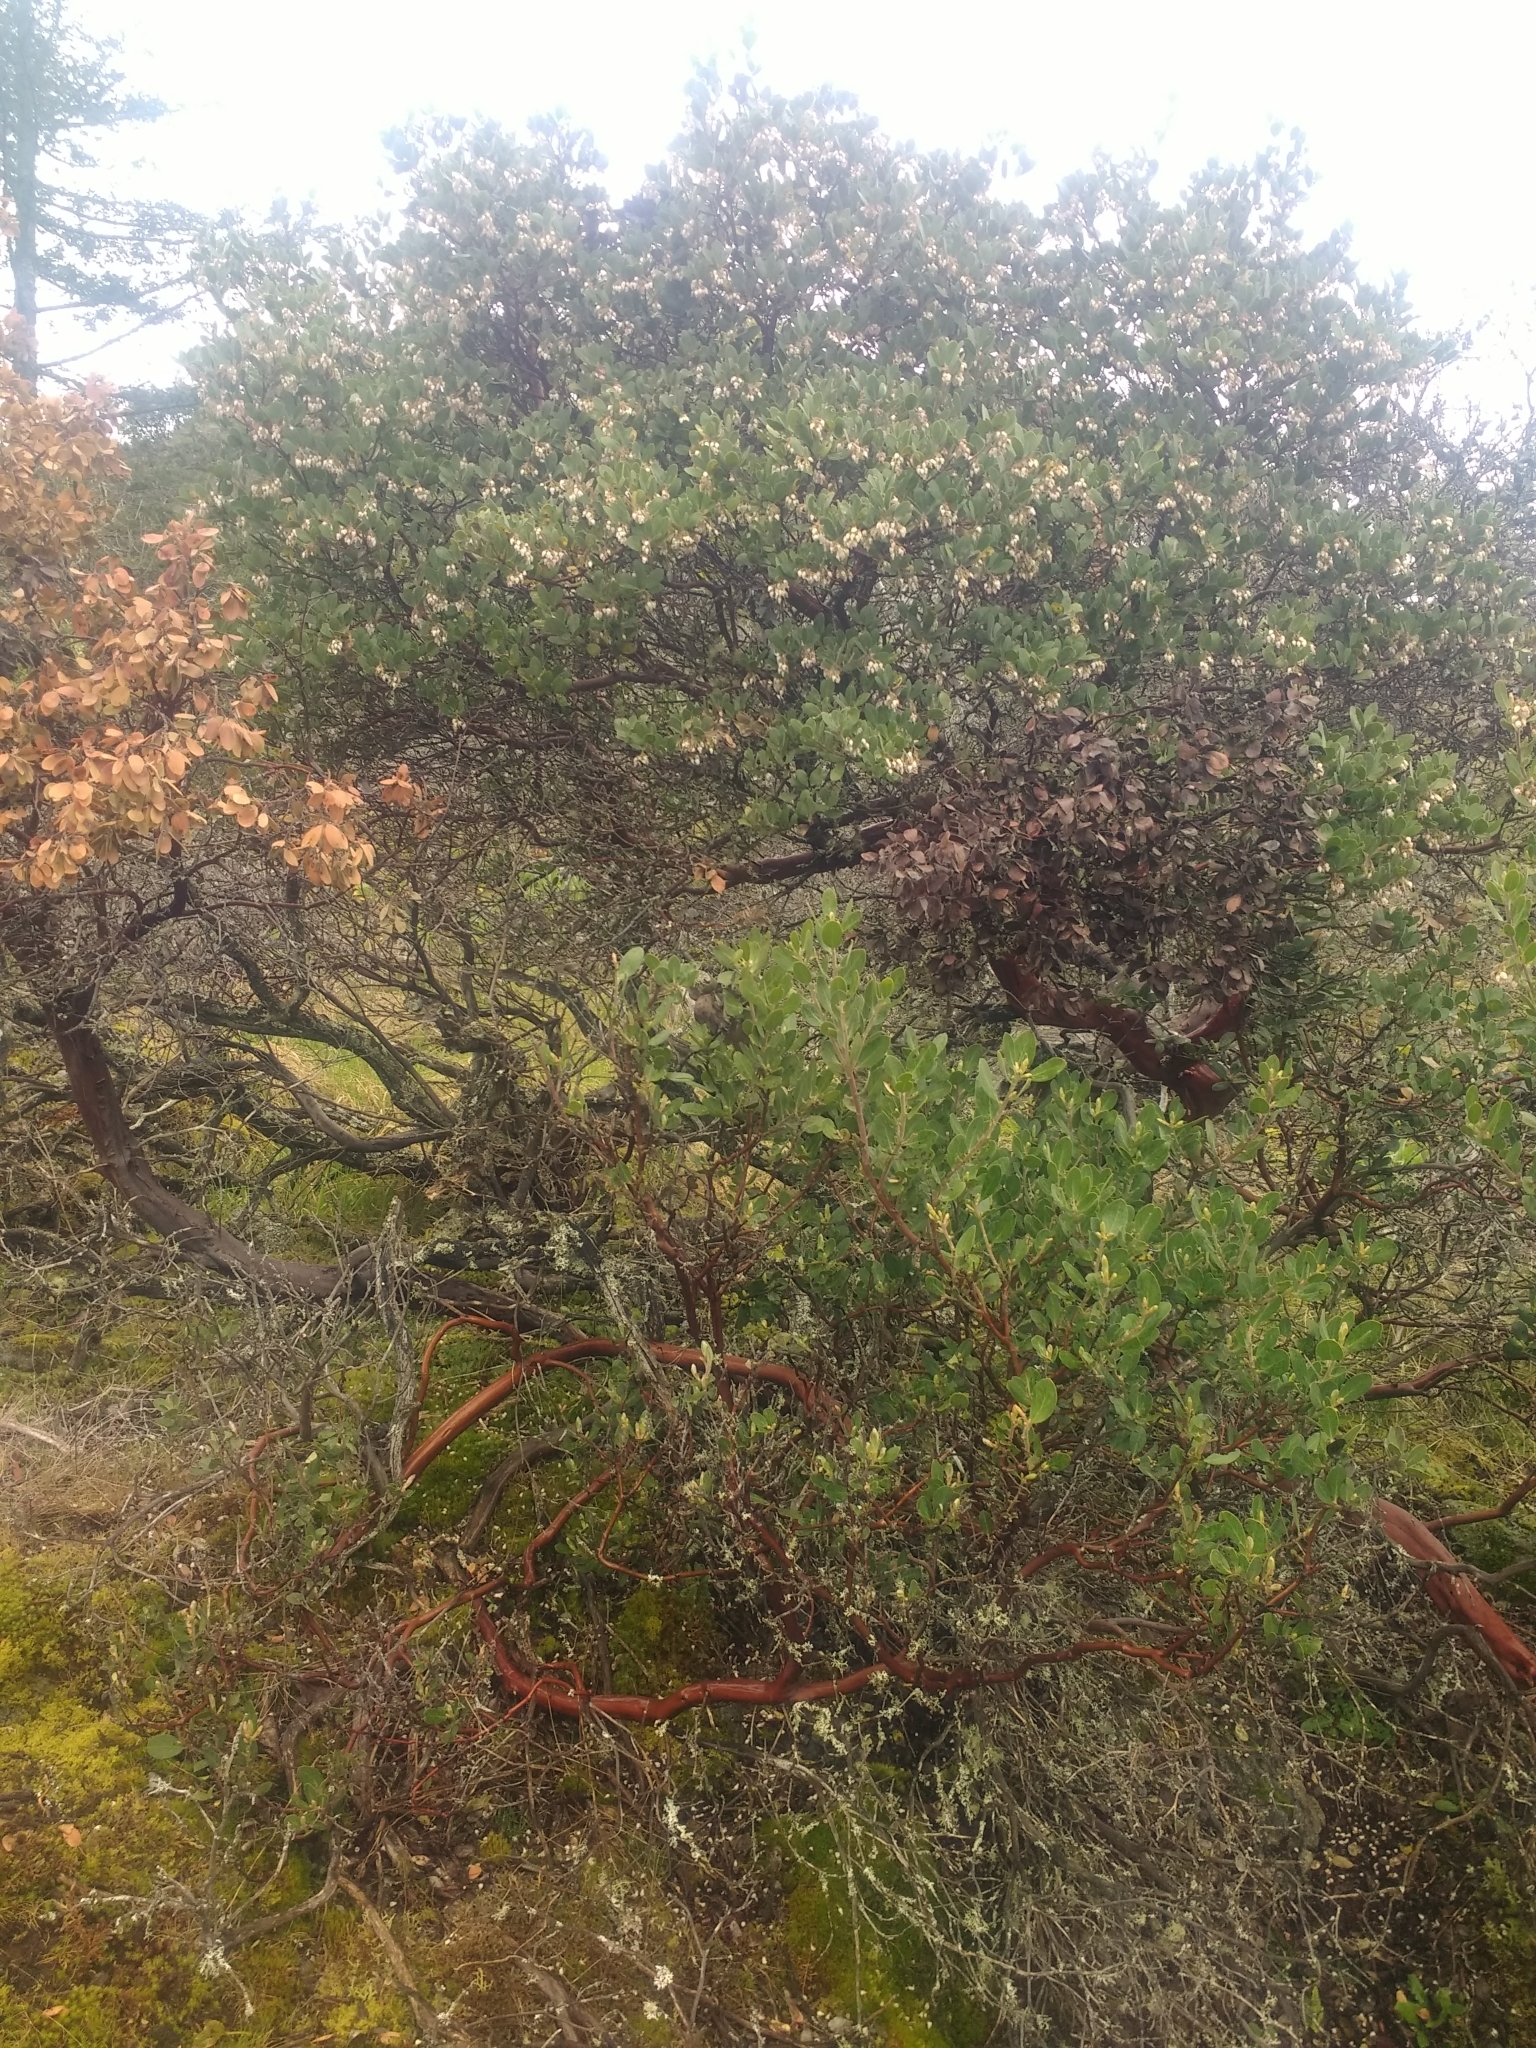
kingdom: Plantae
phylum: Tracheophyta
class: Magnoliopsida
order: Ericales
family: Ericaceae
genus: Arctostaphylos
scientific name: Arctostaphylos columbiana
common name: Bristly bearberry
